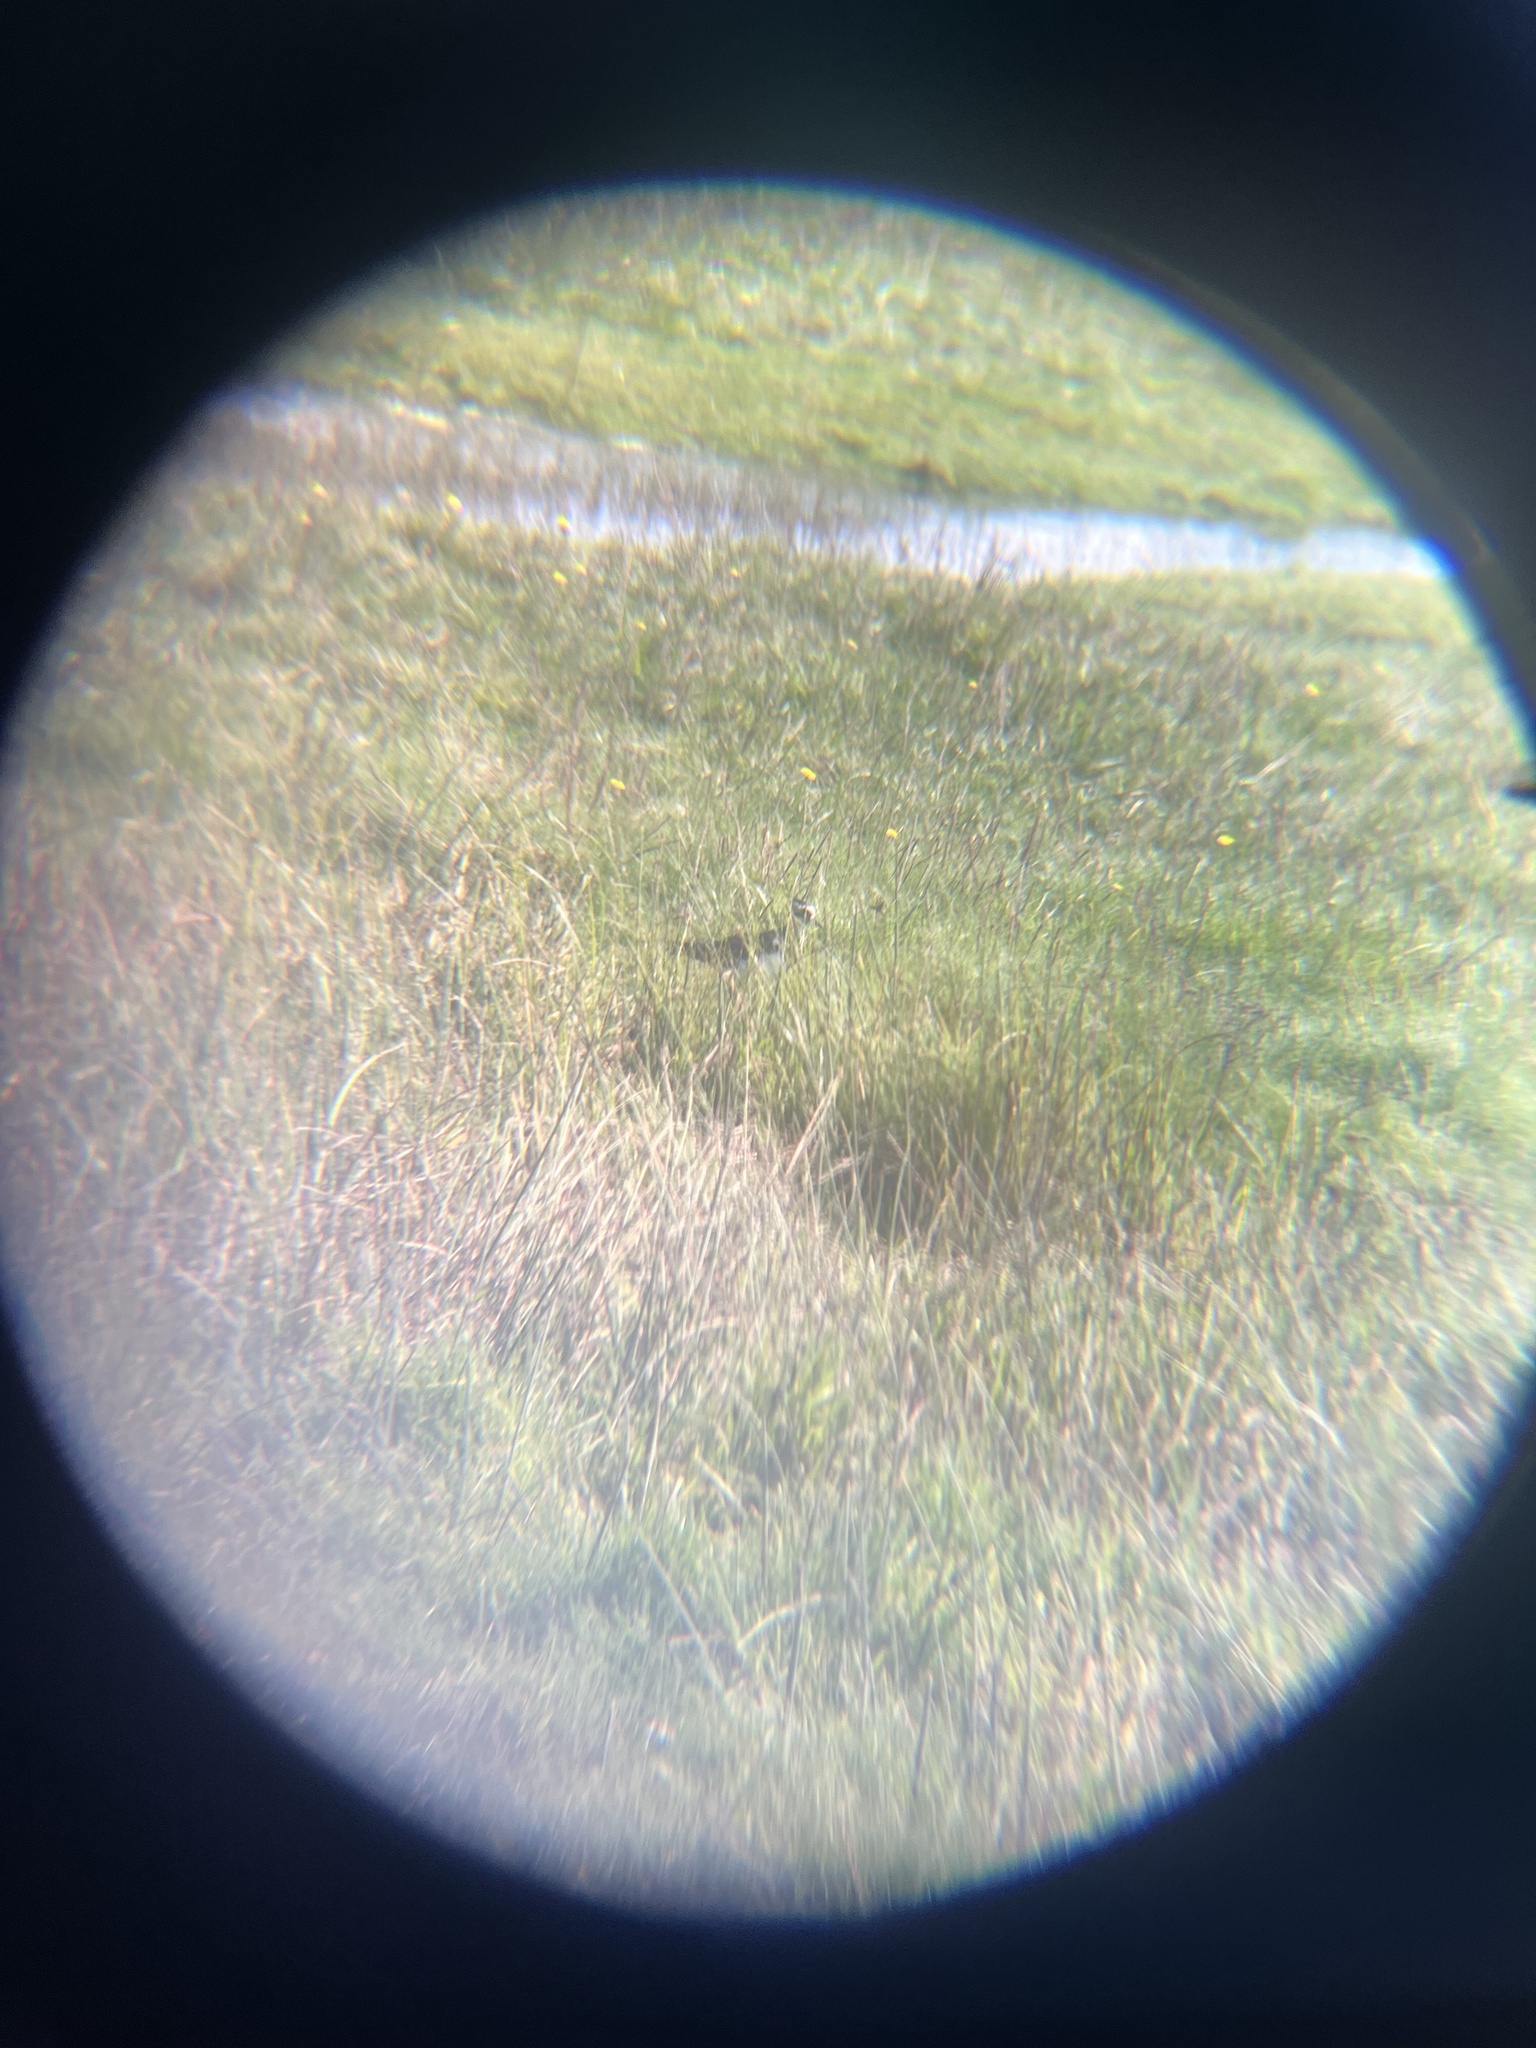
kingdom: Animalia
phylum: Chordata
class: Aves
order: Charadriiformes
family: Charadriidae
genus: Vanellus
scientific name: Vanellus vanellus
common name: Northern lapwing
